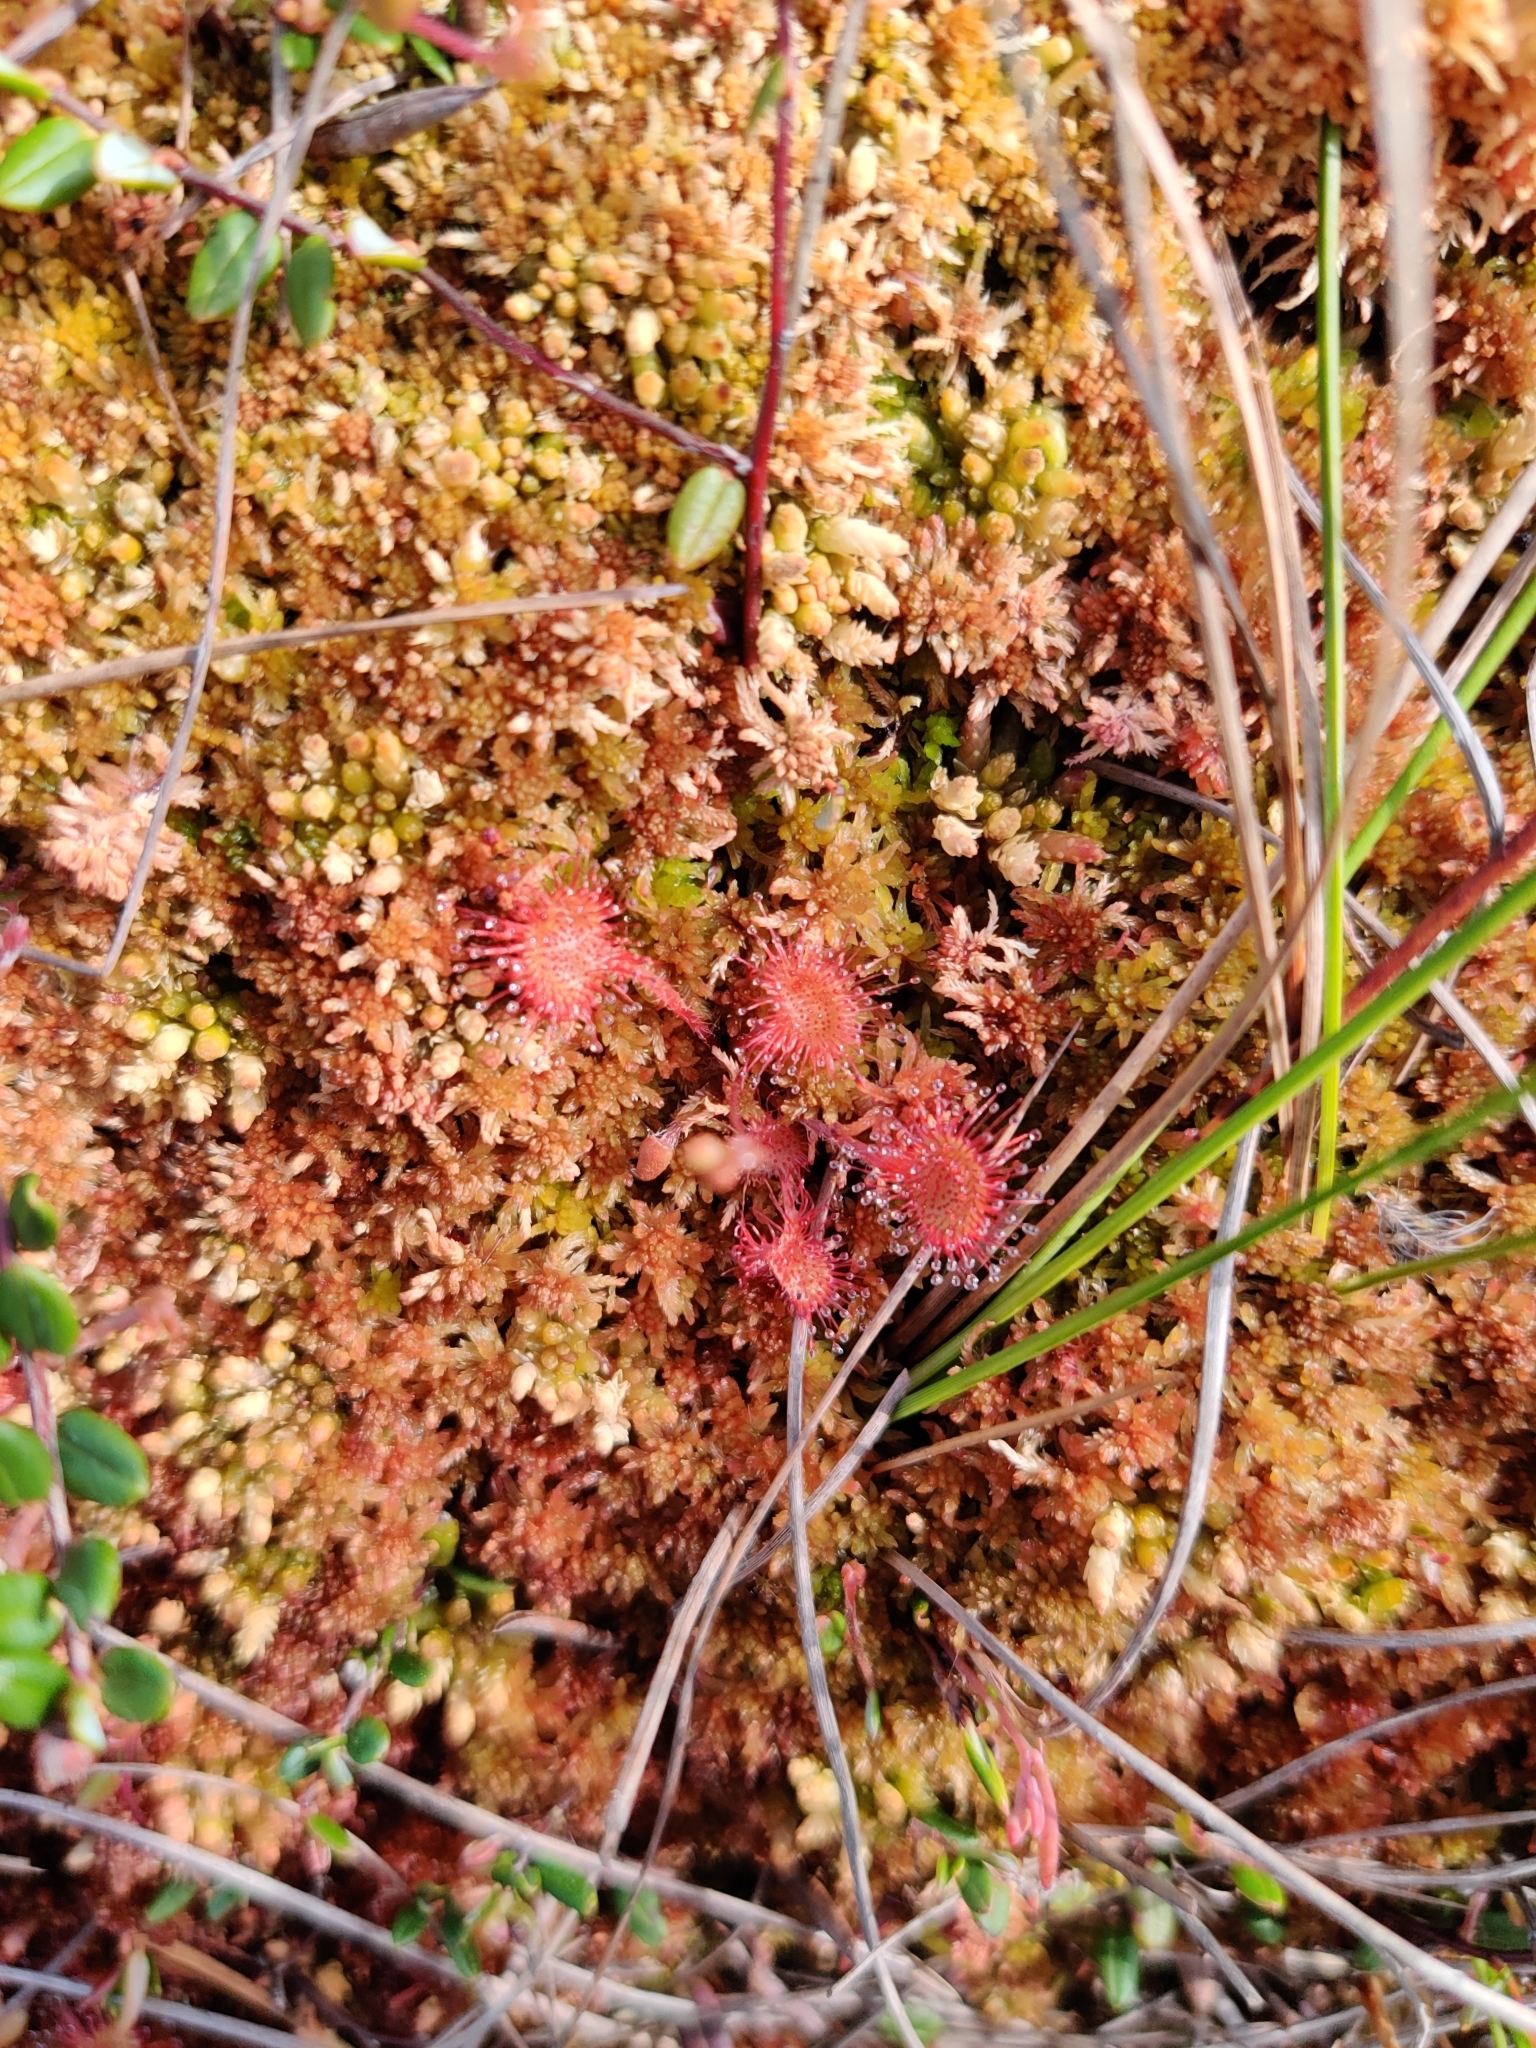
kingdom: Plantae
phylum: Tracheophyta
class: Magnoliopsida
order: Caryophyllales
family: Droseraceae
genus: Drosera
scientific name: Drosera rotundifolia
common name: Round-leaved sundew
